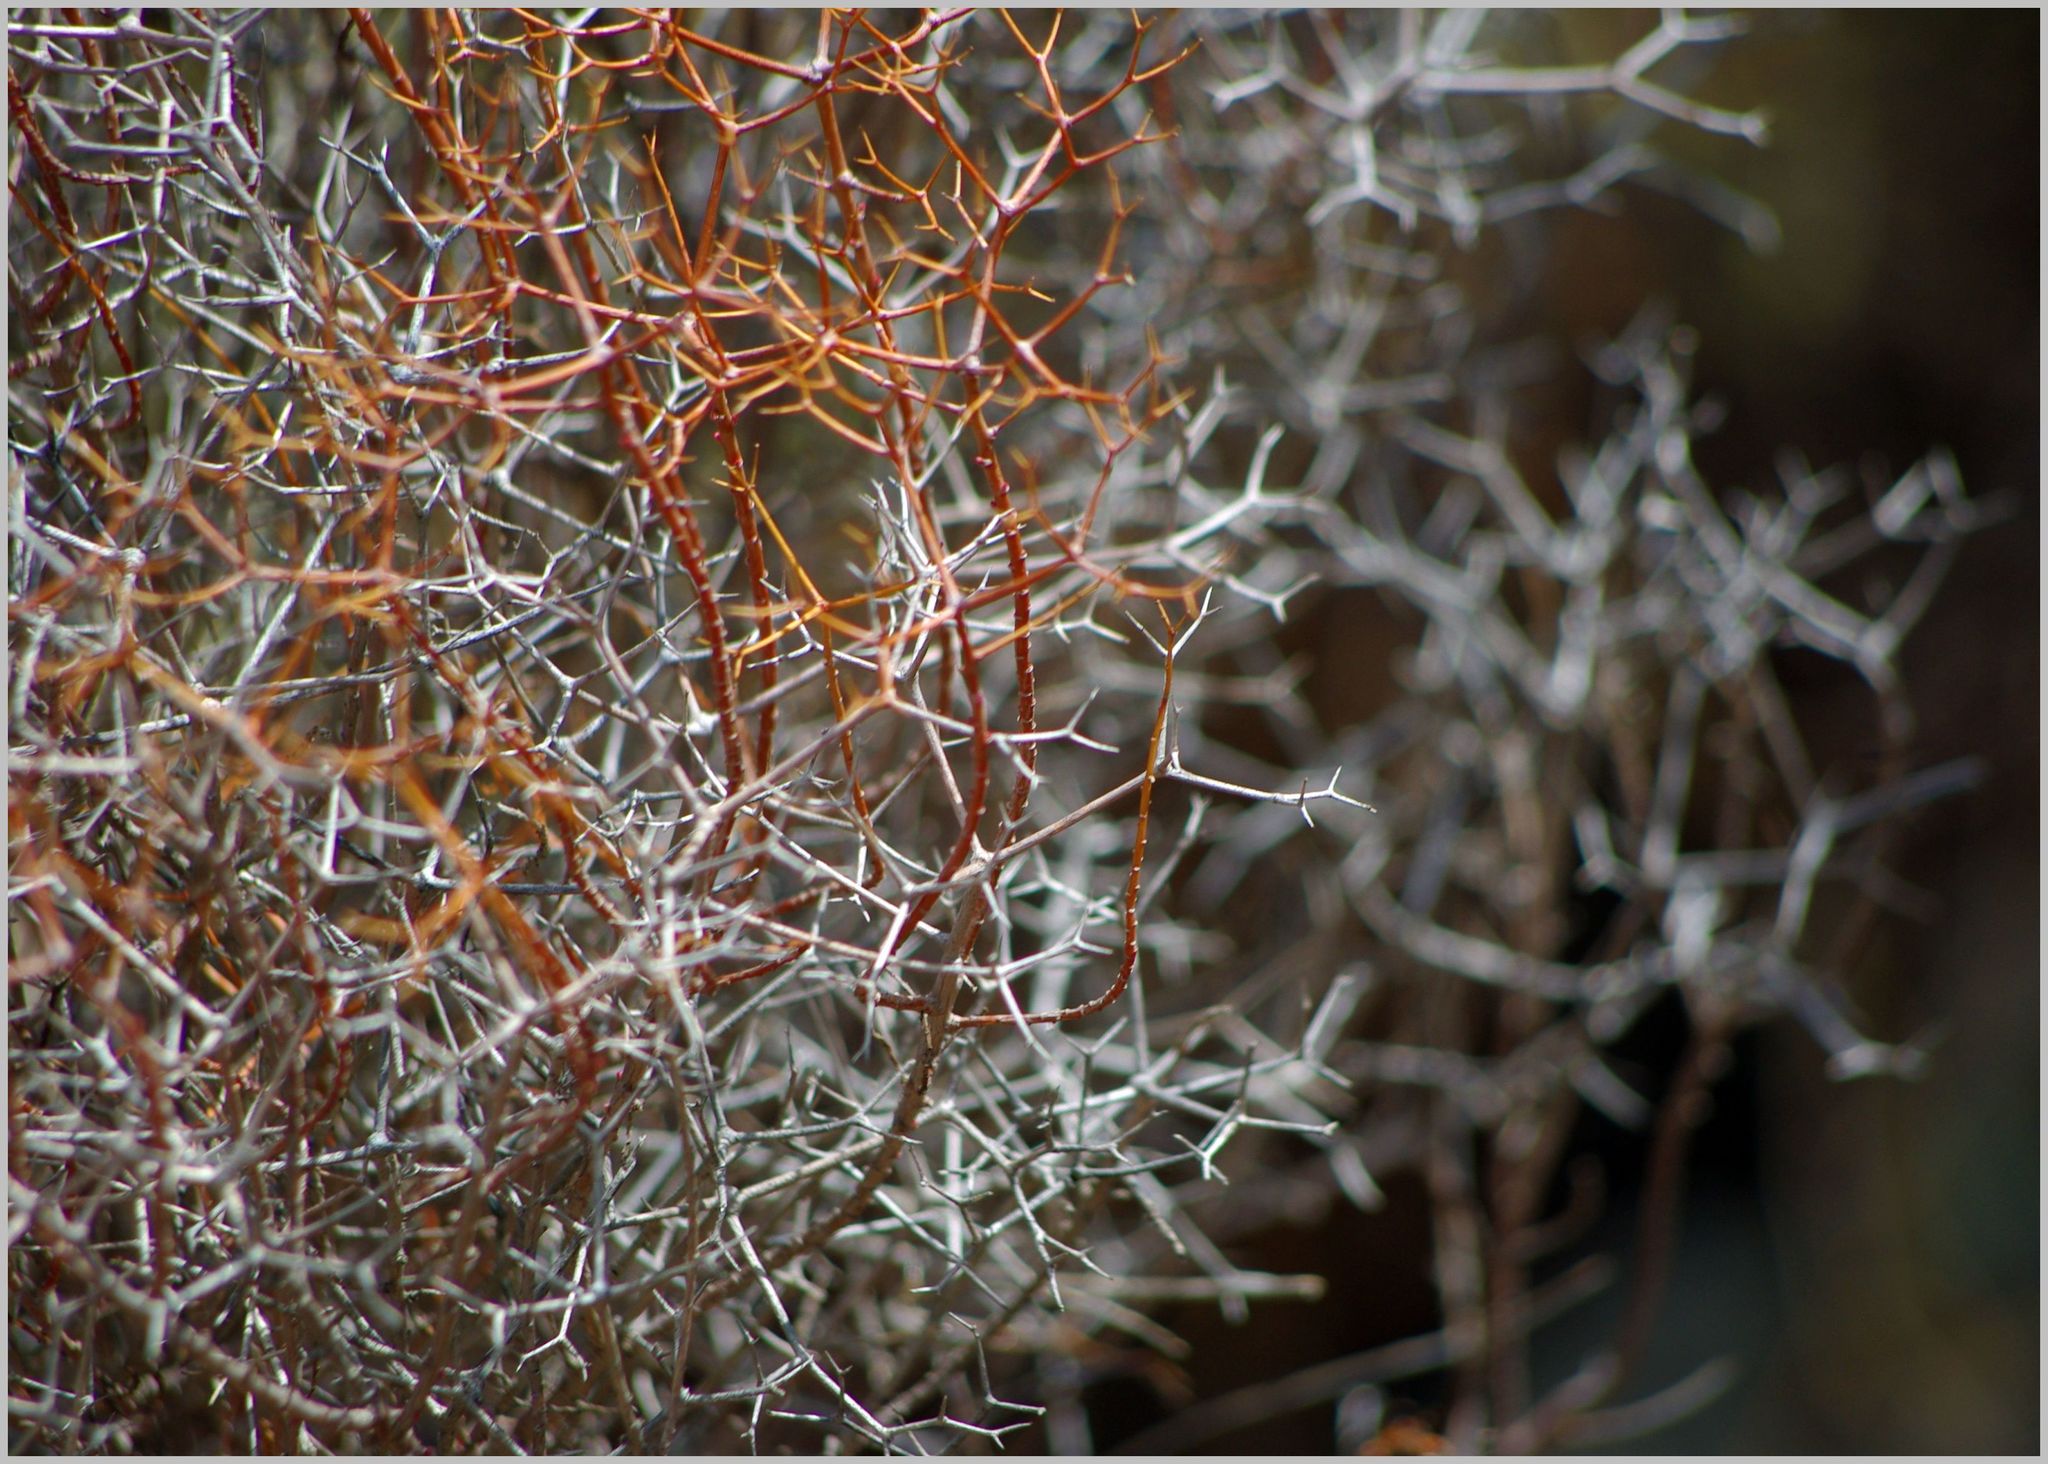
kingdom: Plantae
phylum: Tracheophyta
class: Magnoliopsida
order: Rosales
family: Rosaceae
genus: Sarcopoterium
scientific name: Sarcopoterium spinosum
